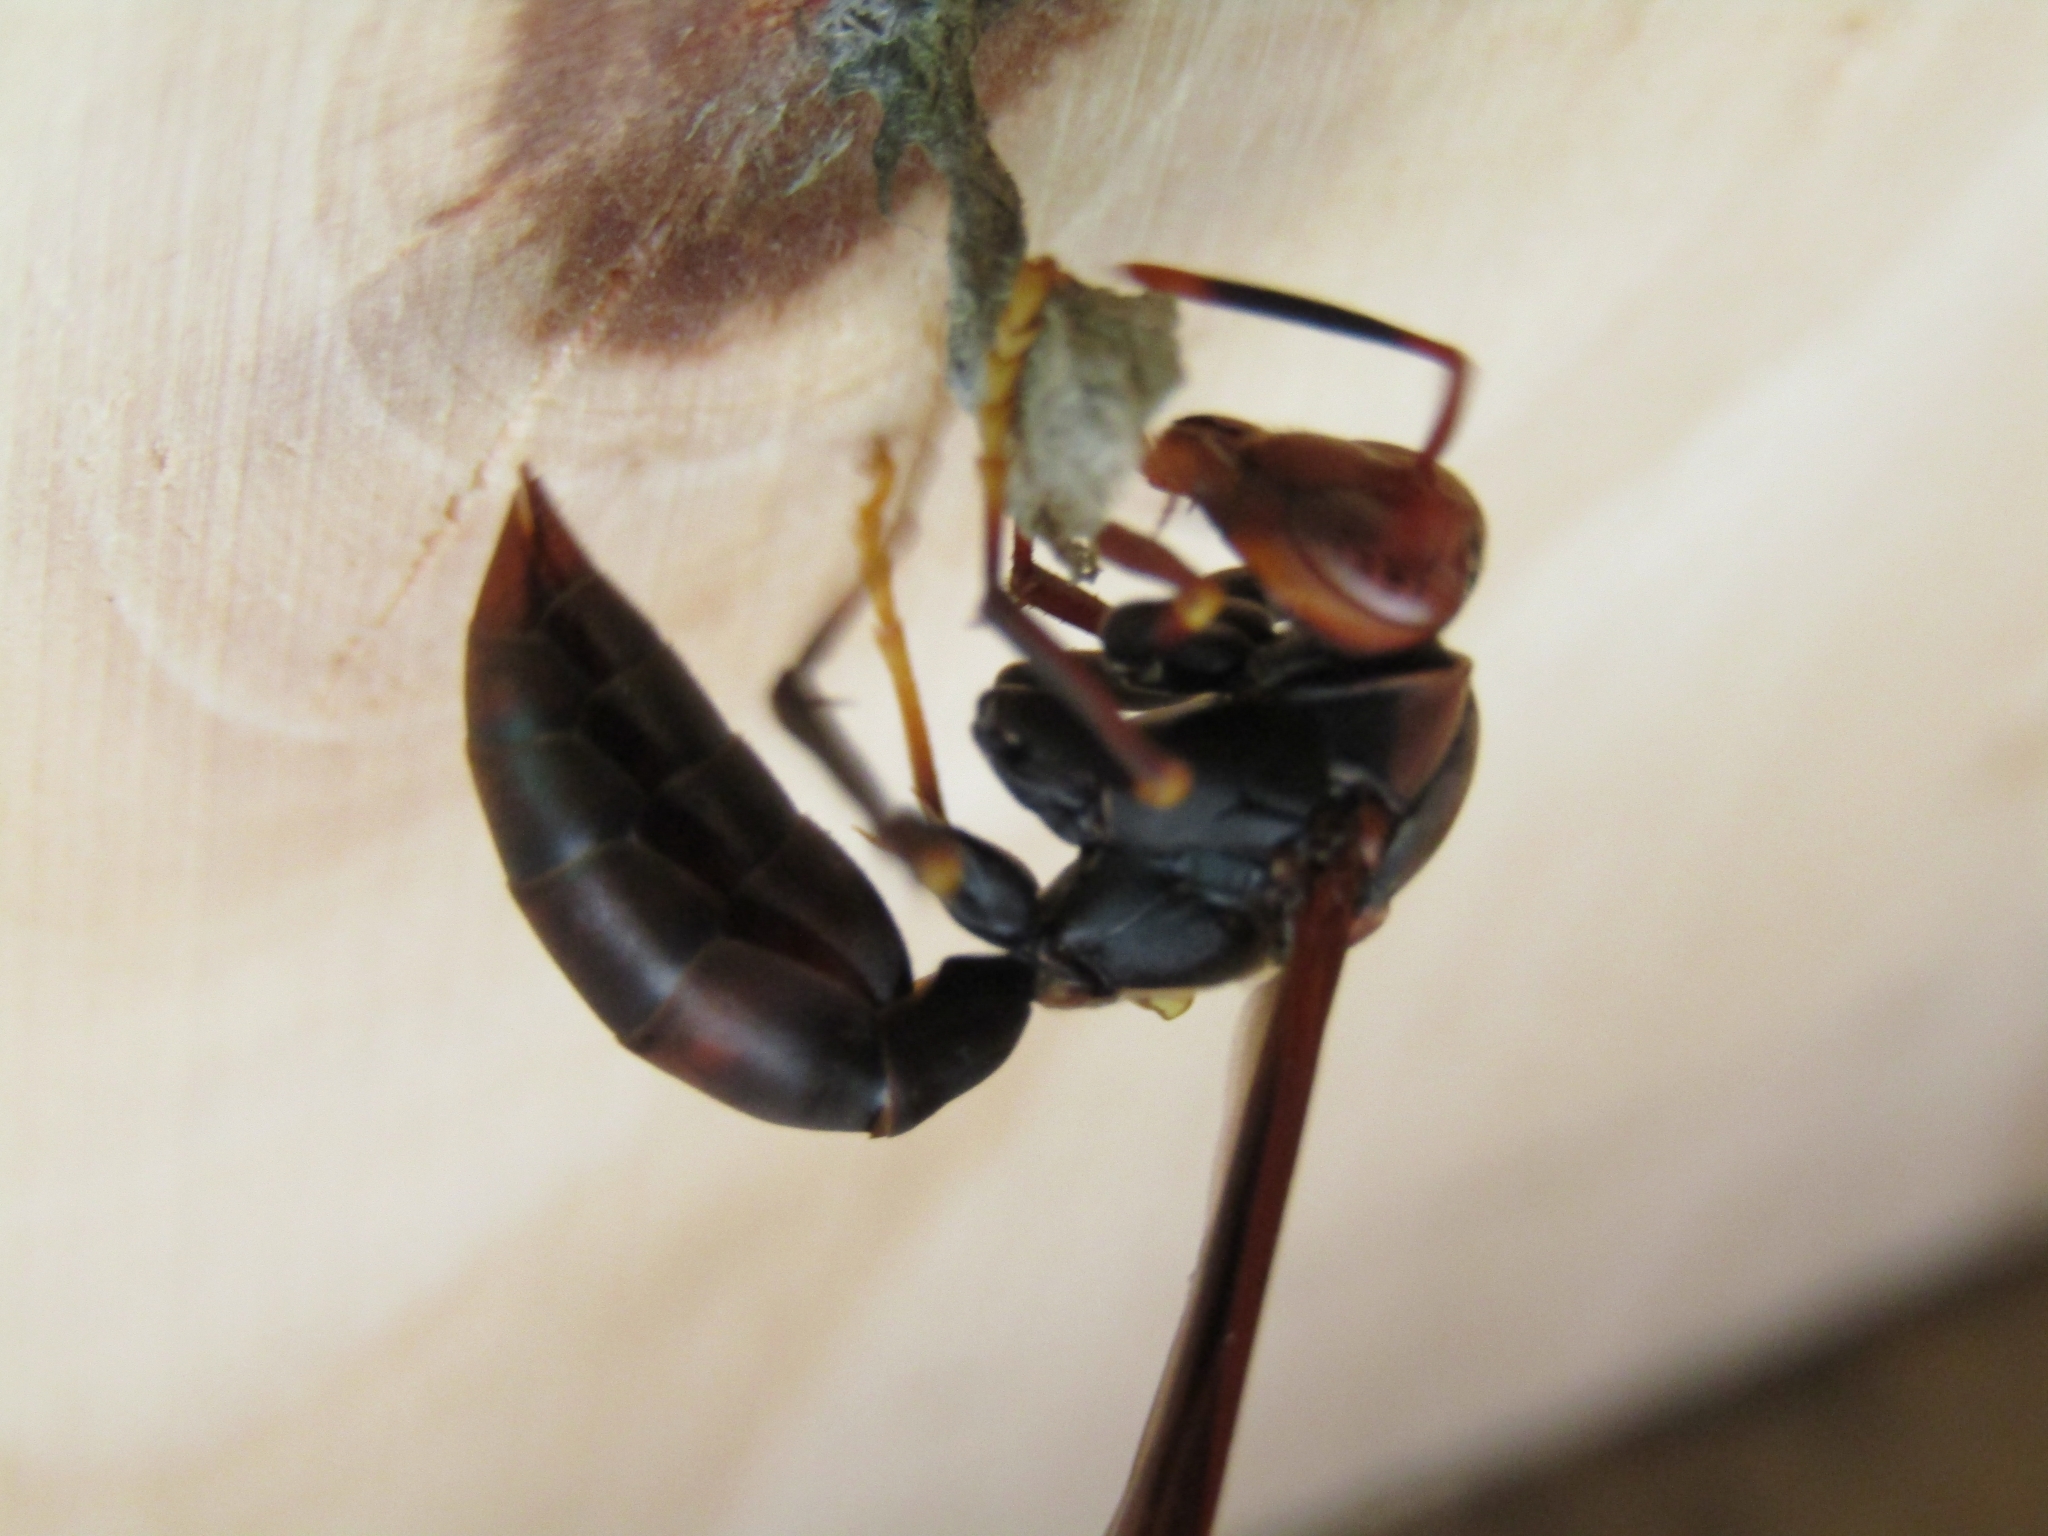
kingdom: Animalia
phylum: Arthropoda
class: Insecta
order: Hymenoptera
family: Pompilidae
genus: Aphanilopterus
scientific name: Aphanilopterus
